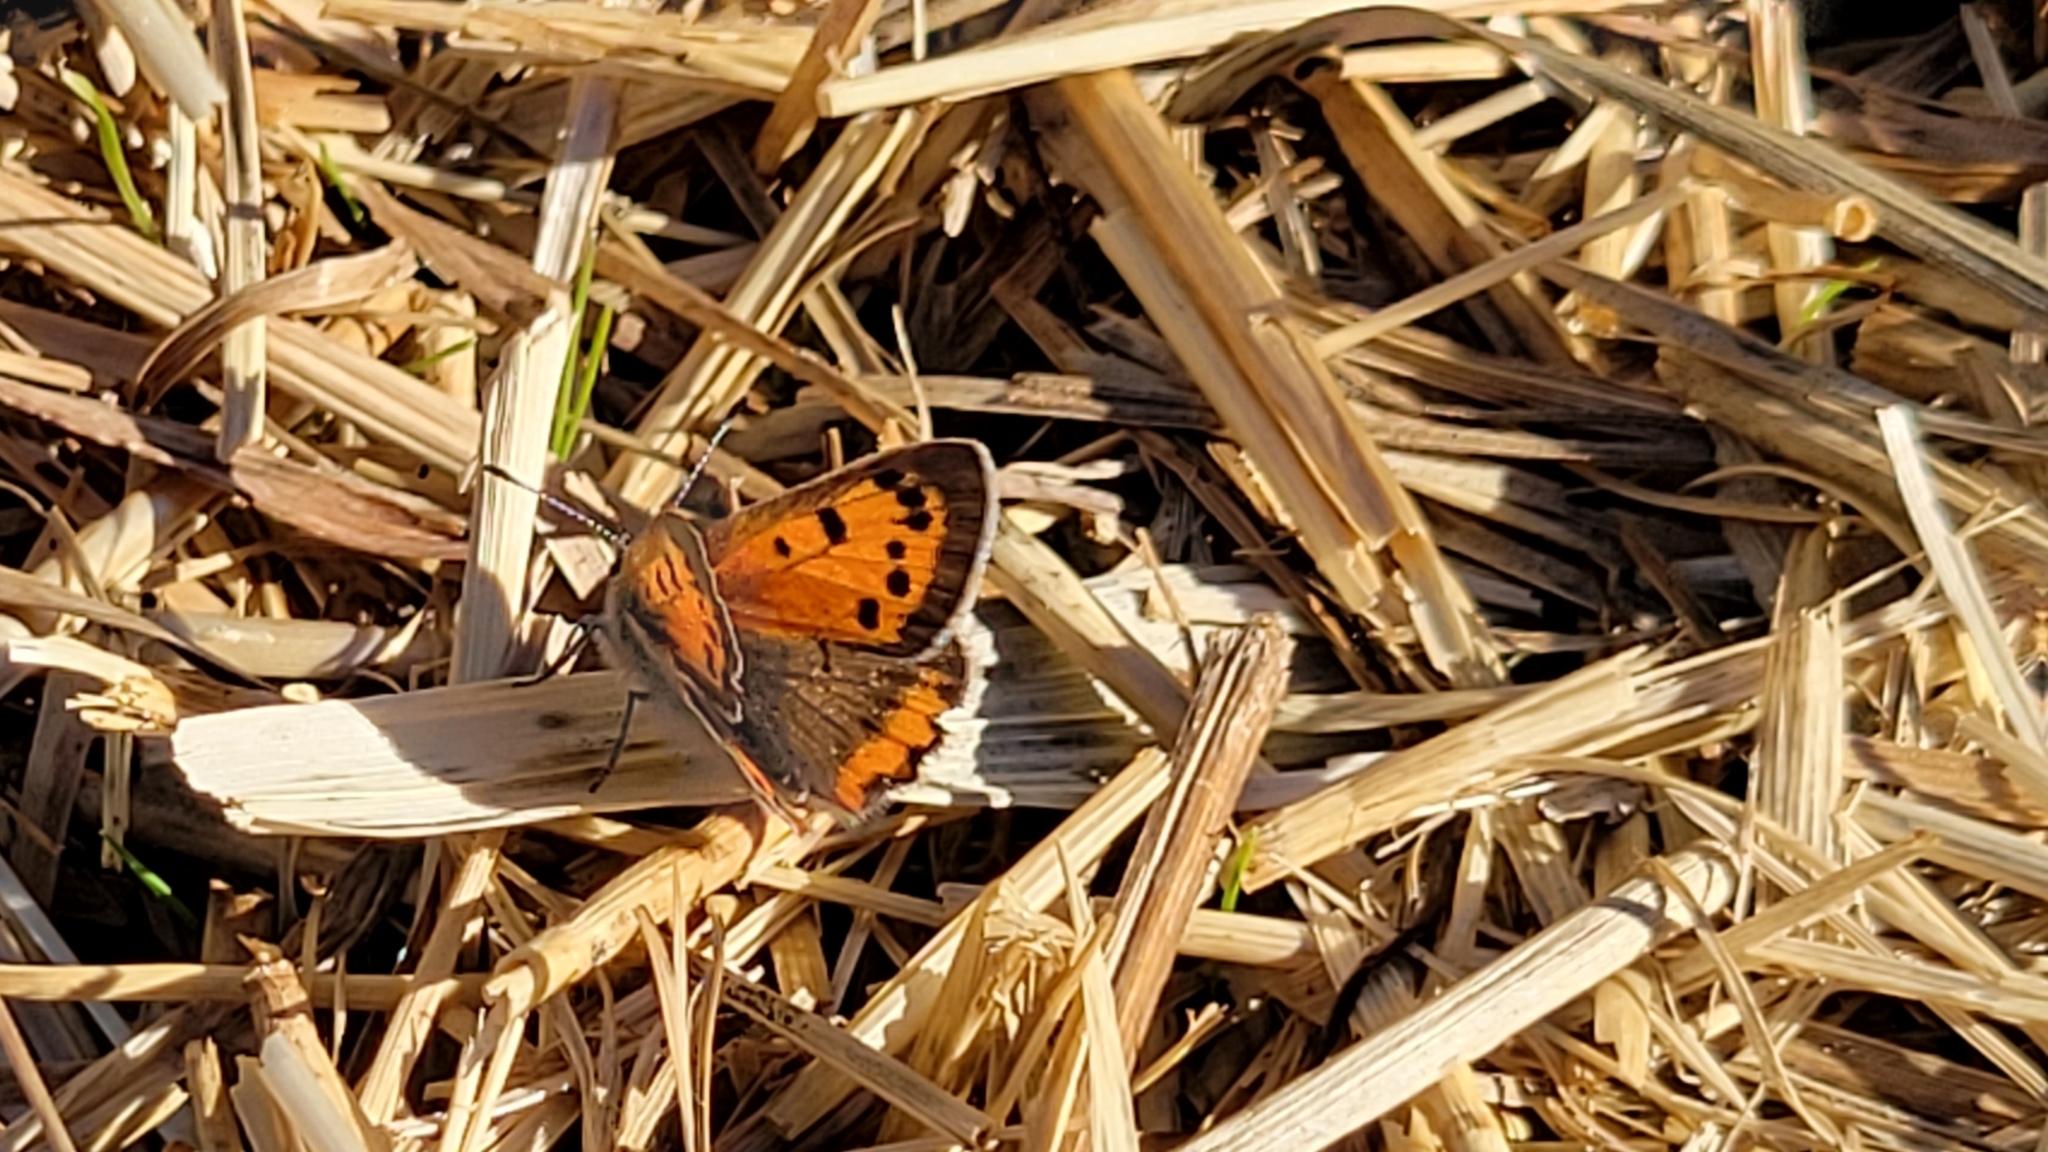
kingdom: Animalia
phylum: Arthropoda
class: Insecta
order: Lepidoptera
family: Lycaenidae
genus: Lycaena
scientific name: Lycaena hypophlaeas
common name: American copper
